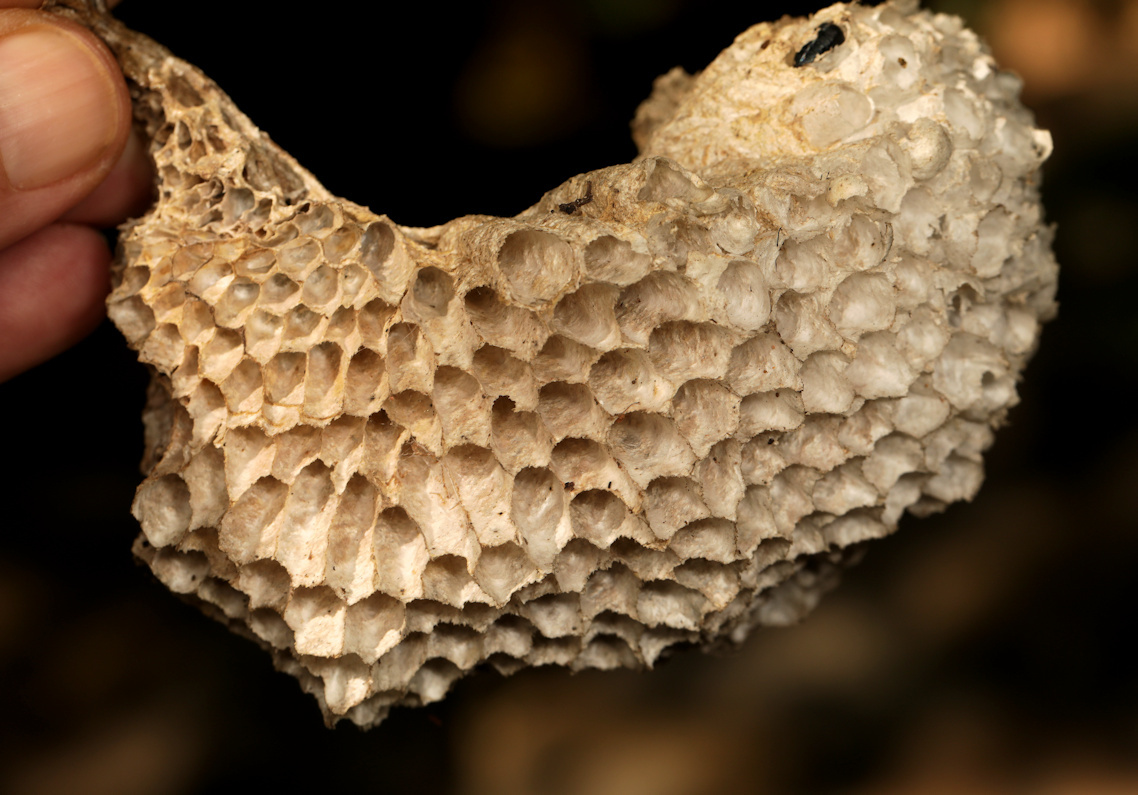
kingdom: Animalia
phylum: Arthropoda
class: Insecta
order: Hymenoptera
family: Eumenidae
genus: Belonogaster
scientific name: Belonogaster
